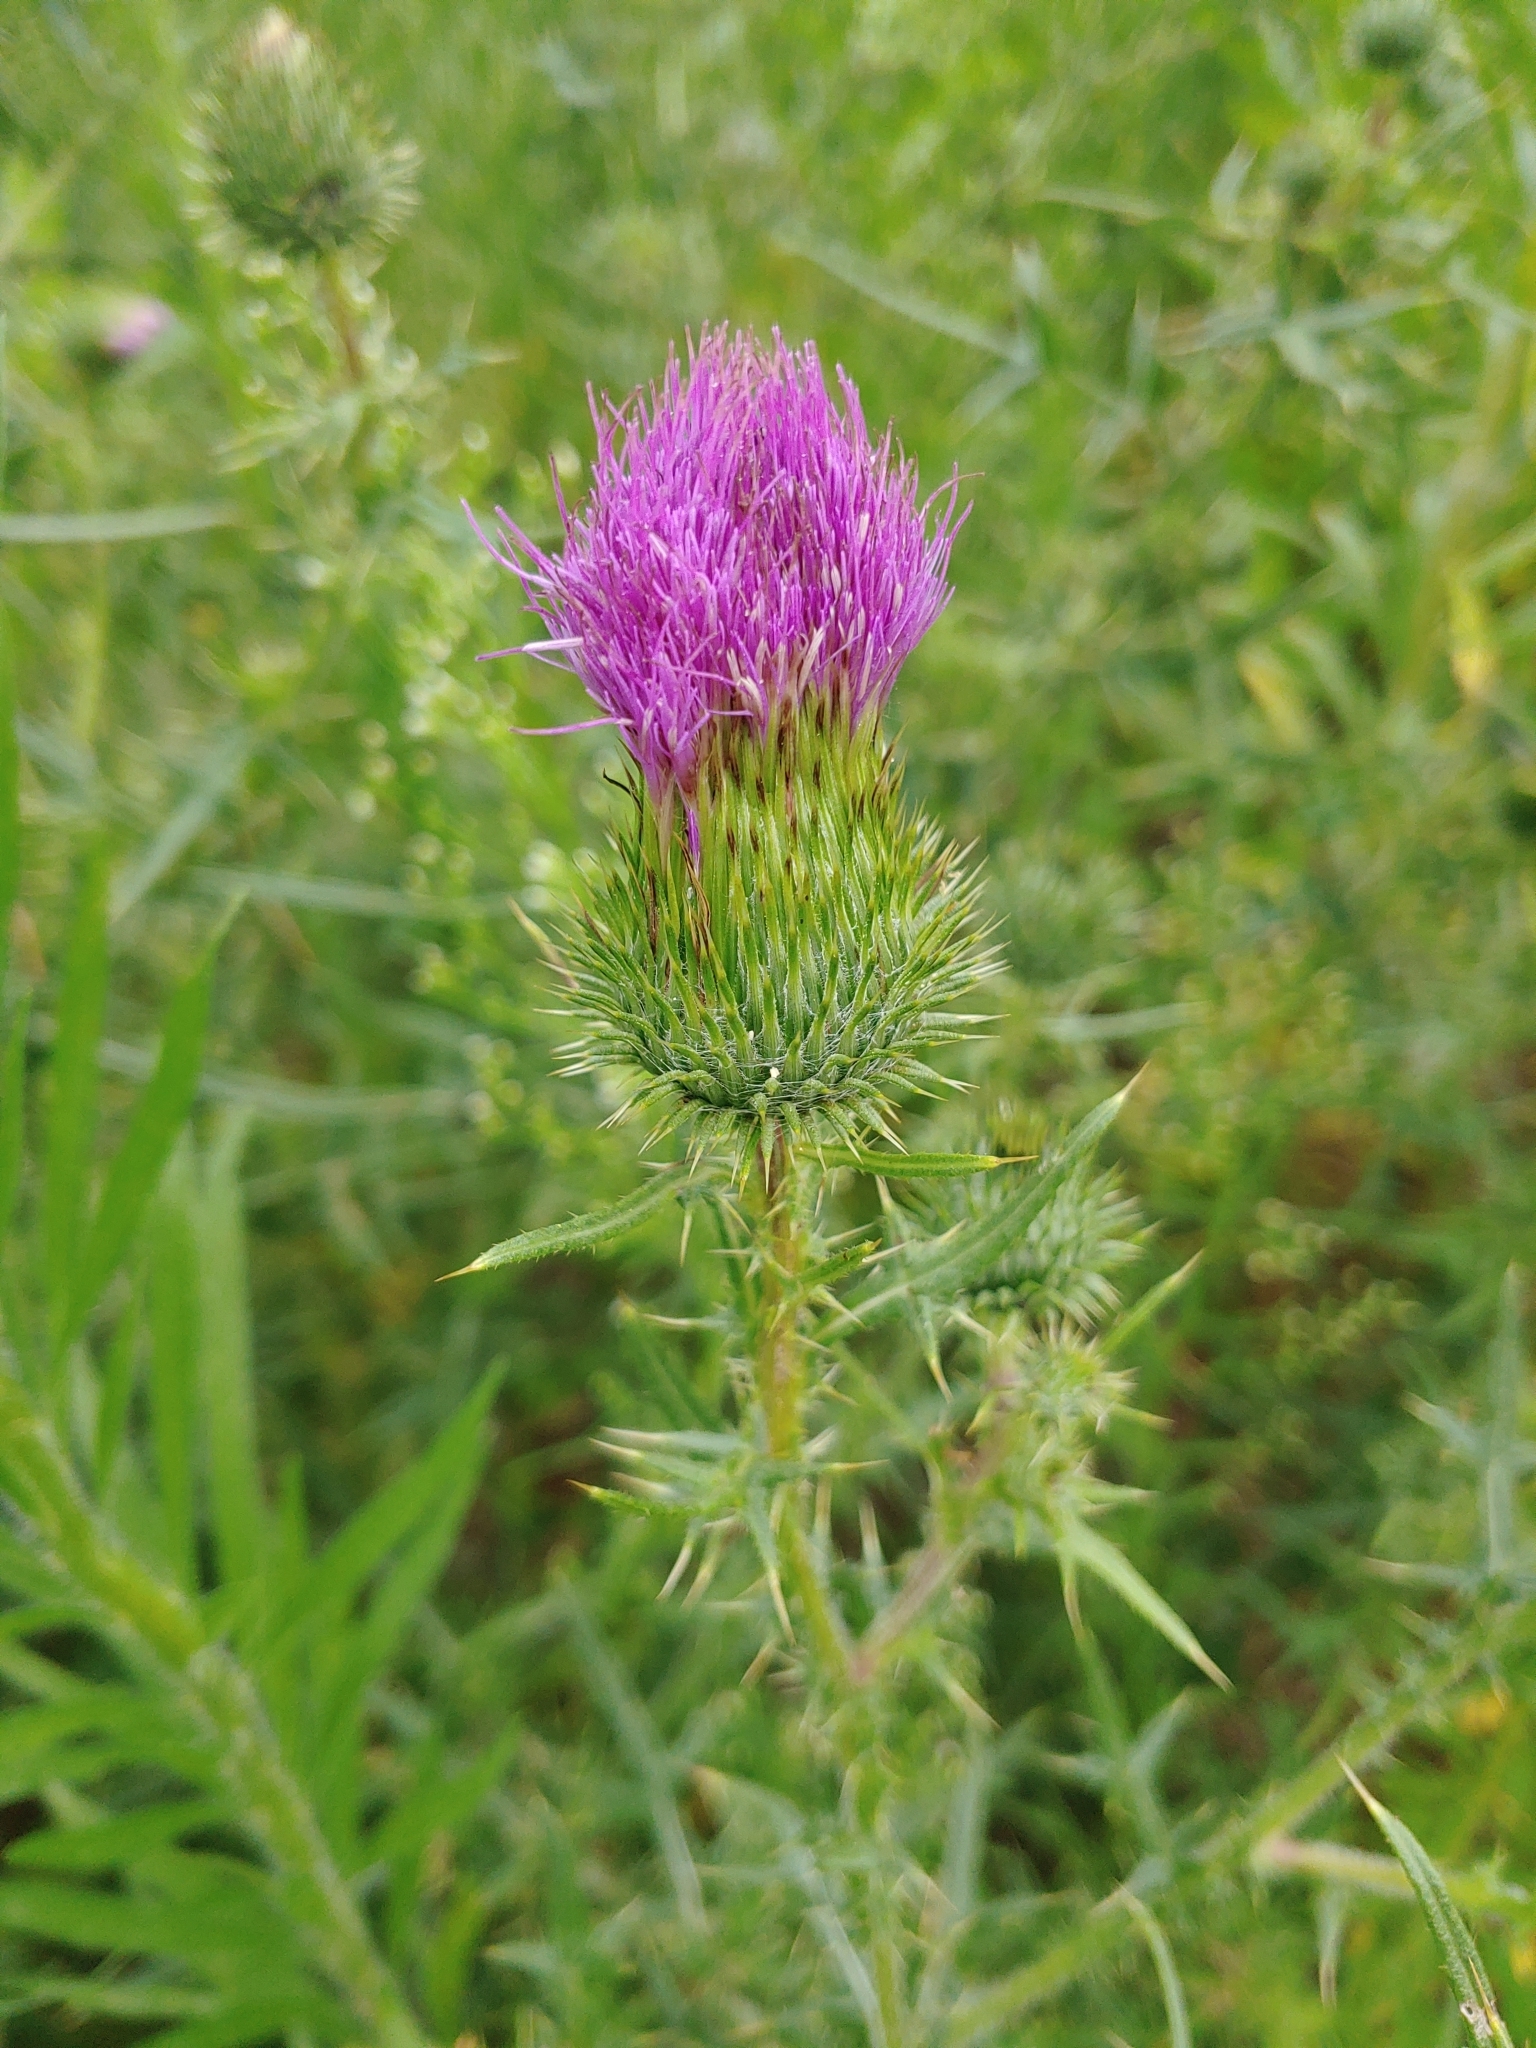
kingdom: Plantae
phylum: Tracheophyta
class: Magnoliopsida
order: Asterales
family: Asteraceae
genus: Cirsium
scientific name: Cirsium vulgare
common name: Bull thistle
